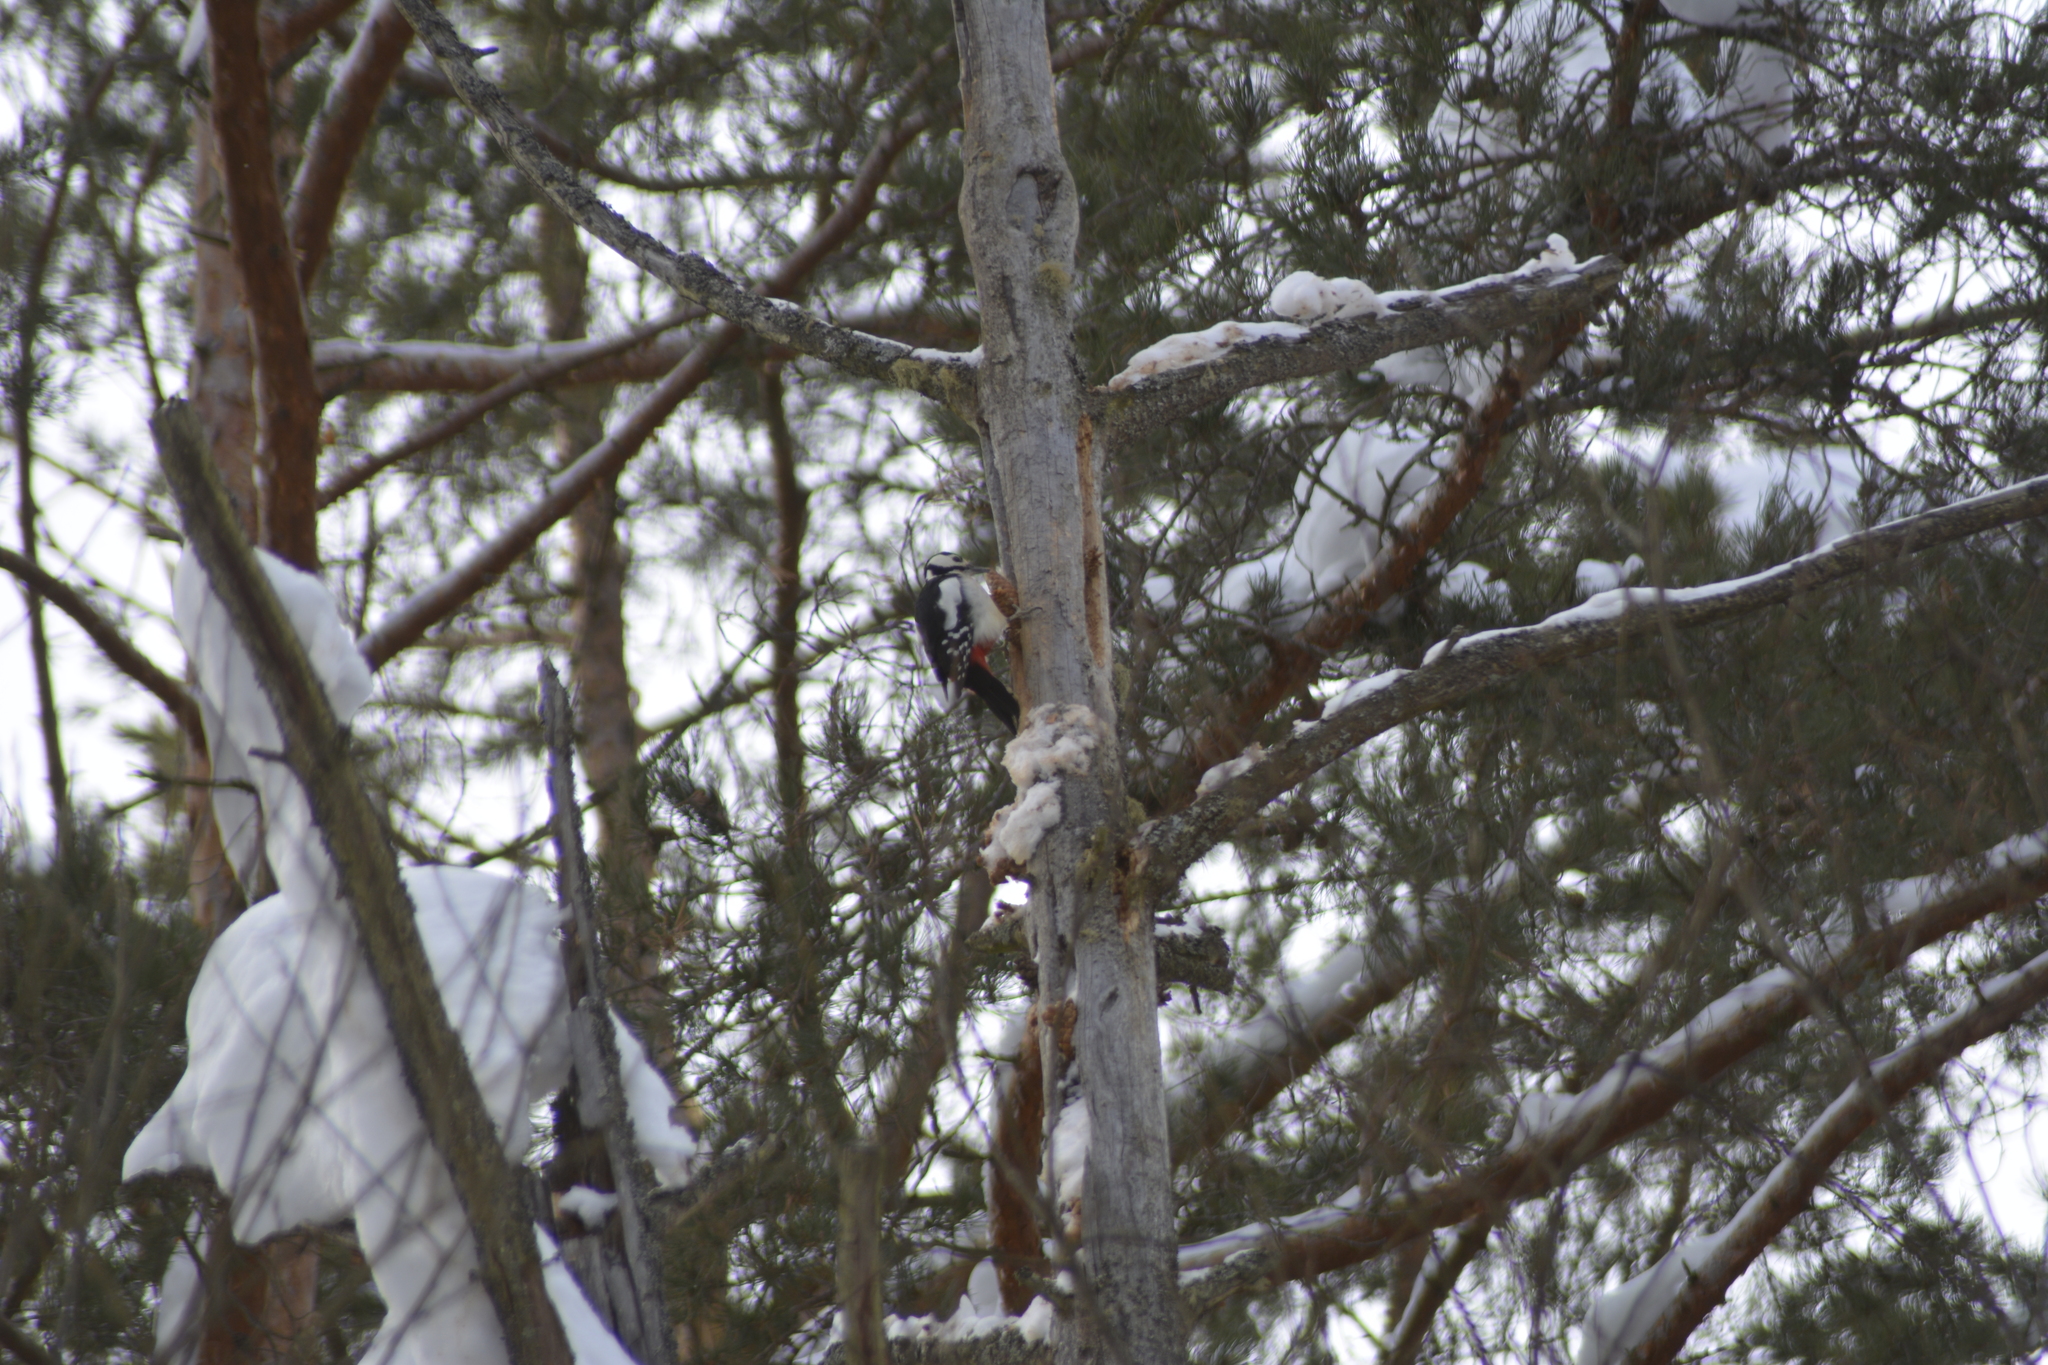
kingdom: Animalia
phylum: Chordata
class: Aves
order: Piciformes
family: Picidae
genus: Dendrocopos
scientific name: Dendrocopos major
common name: Great spotted woodpecker
